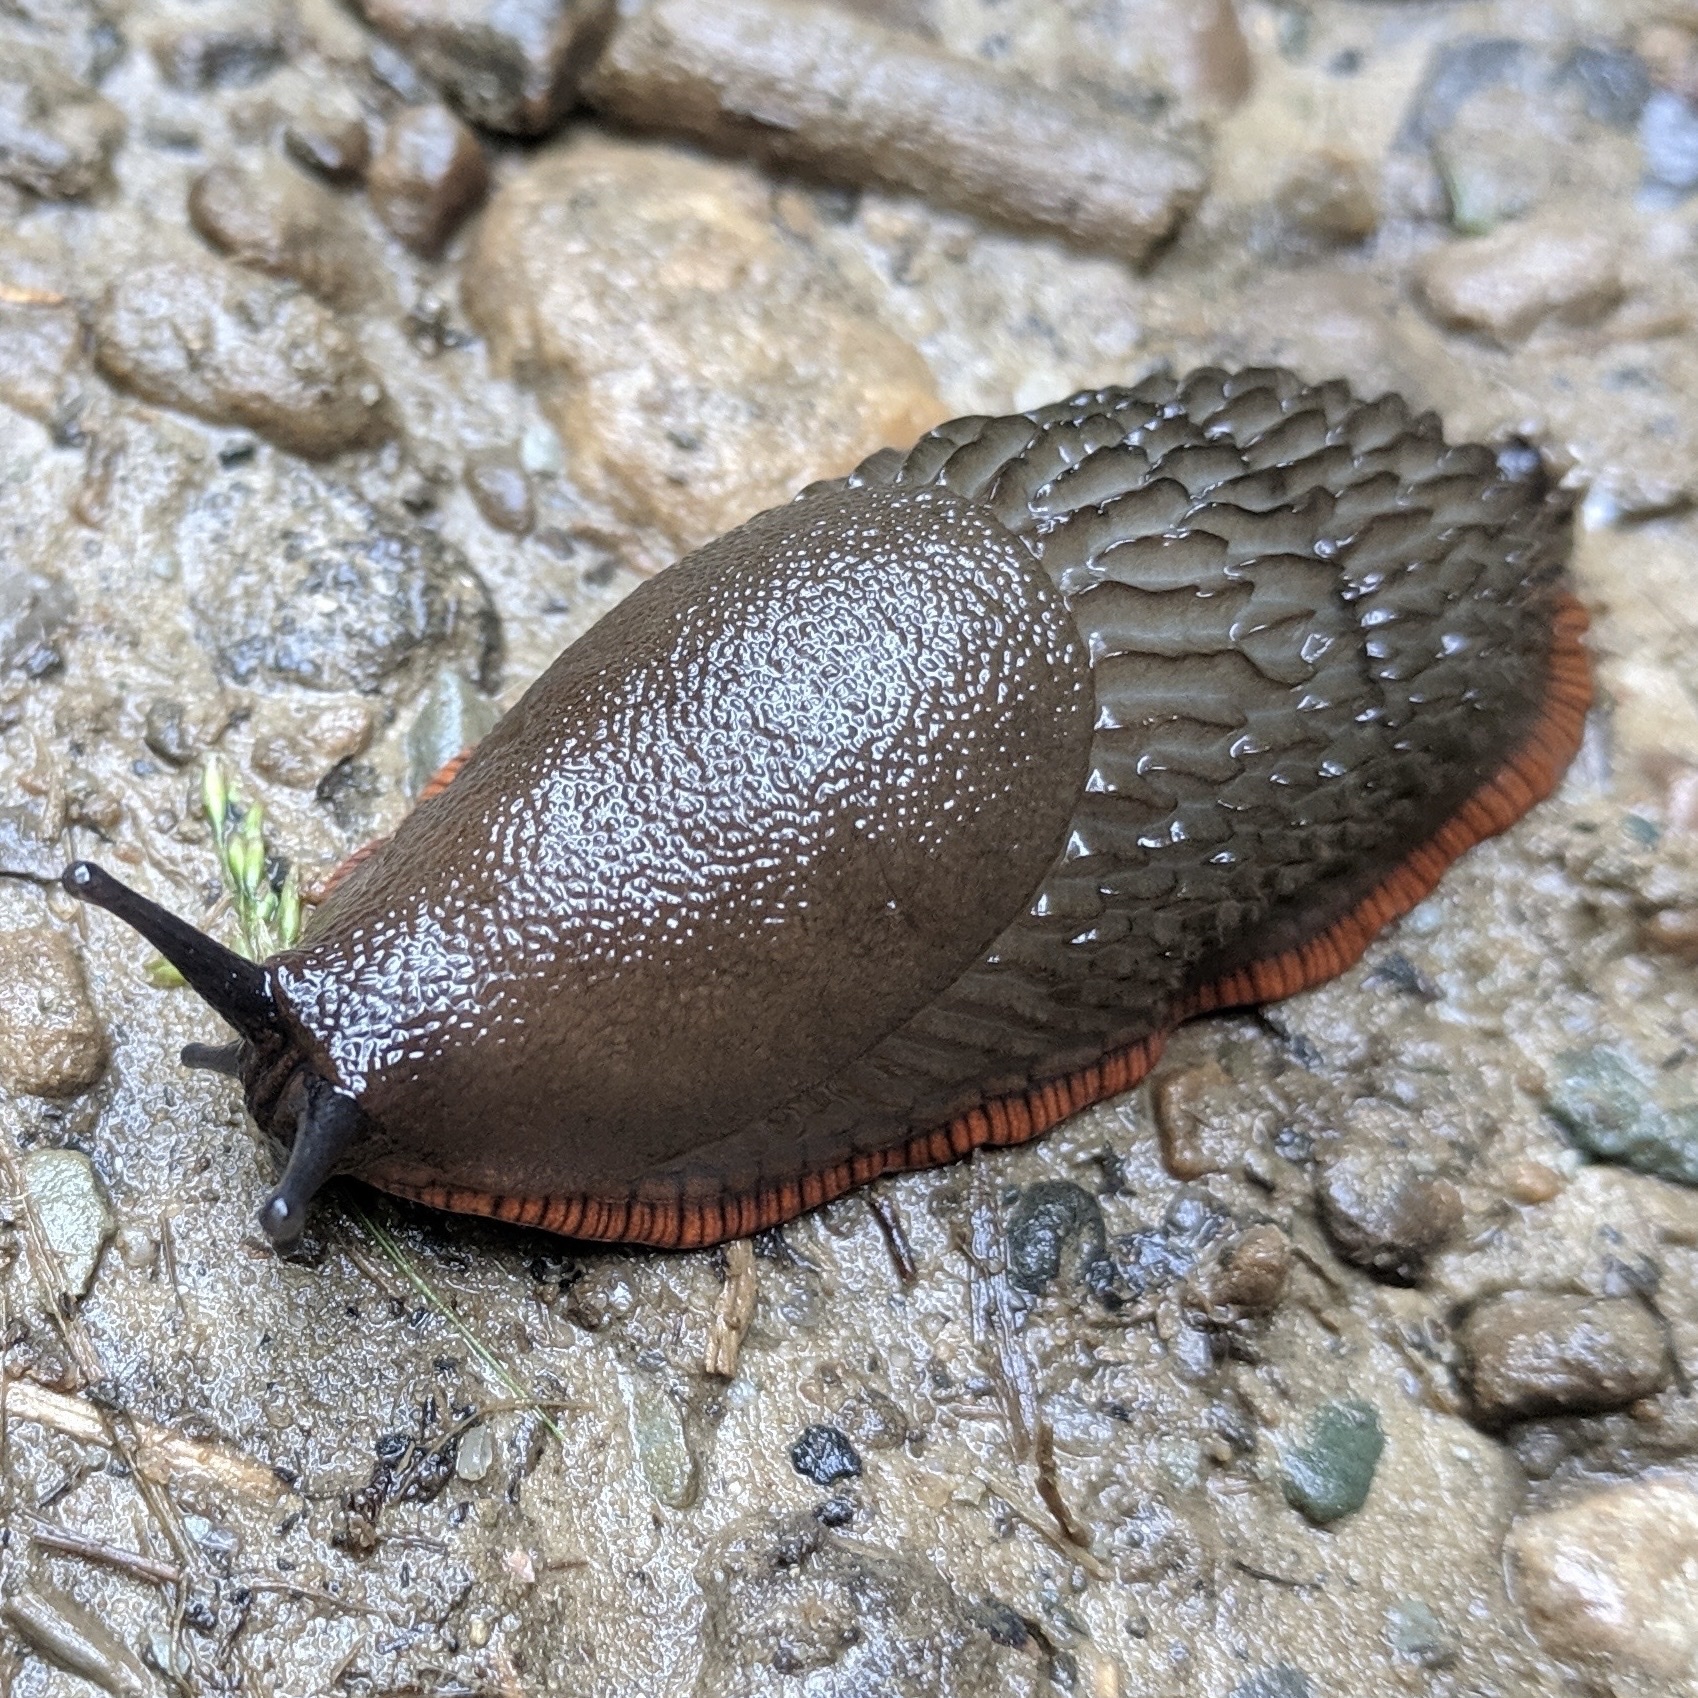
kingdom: Animalia
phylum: Mollusca
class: Gastropoda
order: Stylommatophora
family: Arionidae
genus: Arion
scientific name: Arion rufus
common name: Chocolate arion
